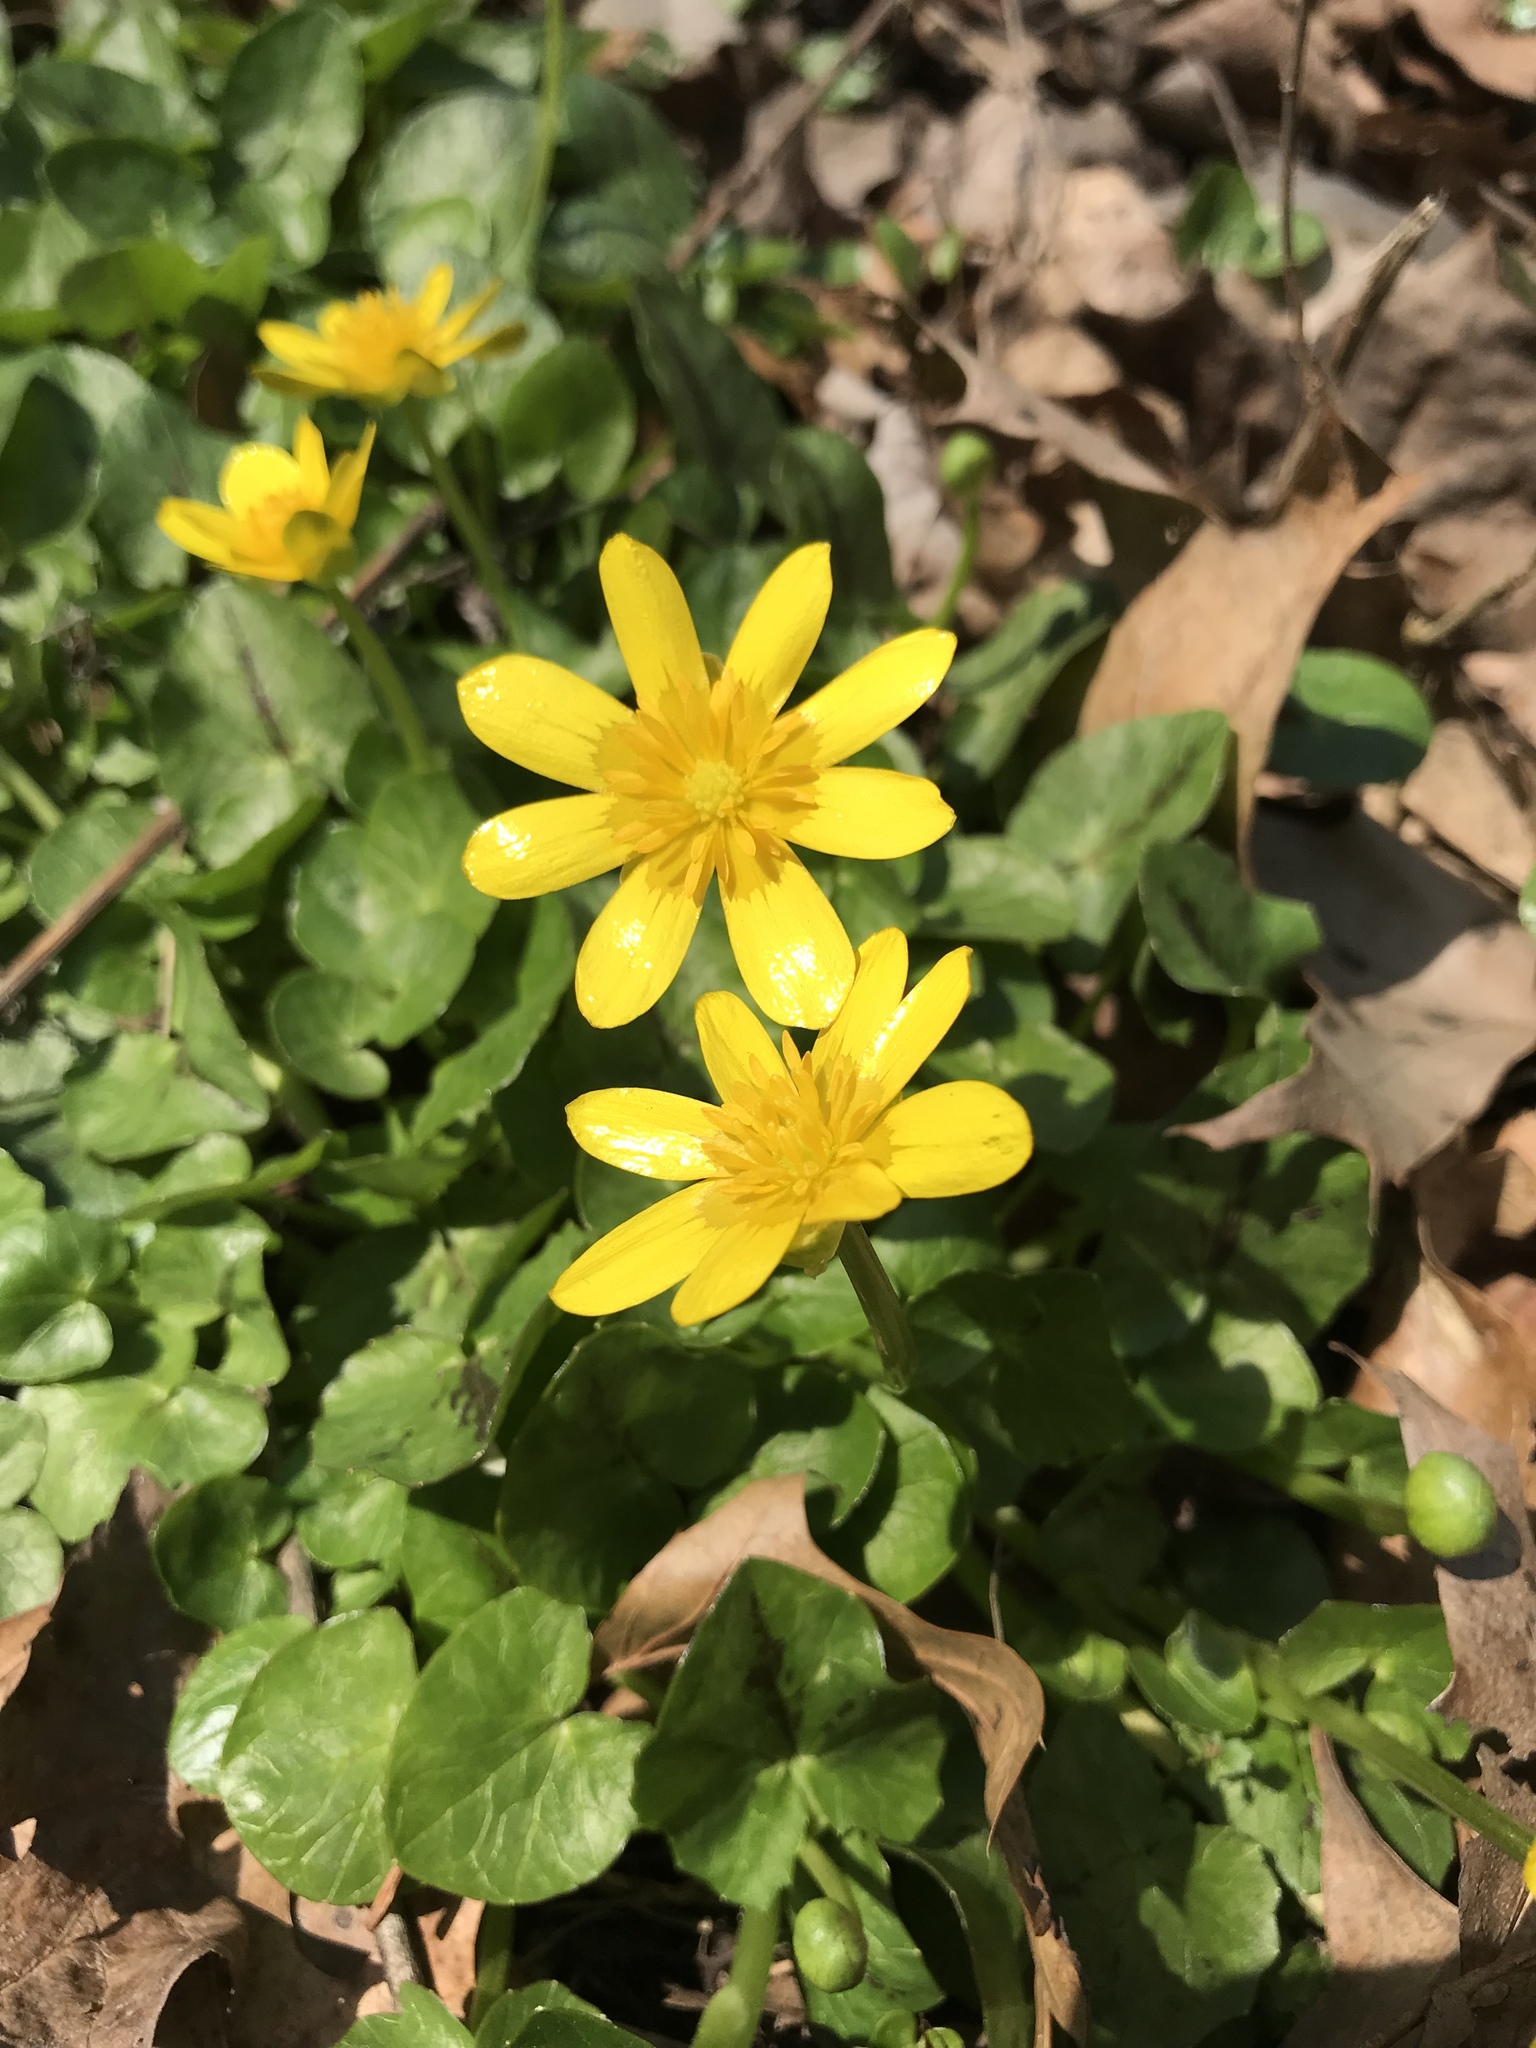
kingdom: Plantae
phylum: Tracheophyta
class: Magnoliopsida
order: Ranunculales
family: Ranunculaceae
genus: Ficaria
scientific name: Ficaria verna
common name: Lesser celandine
